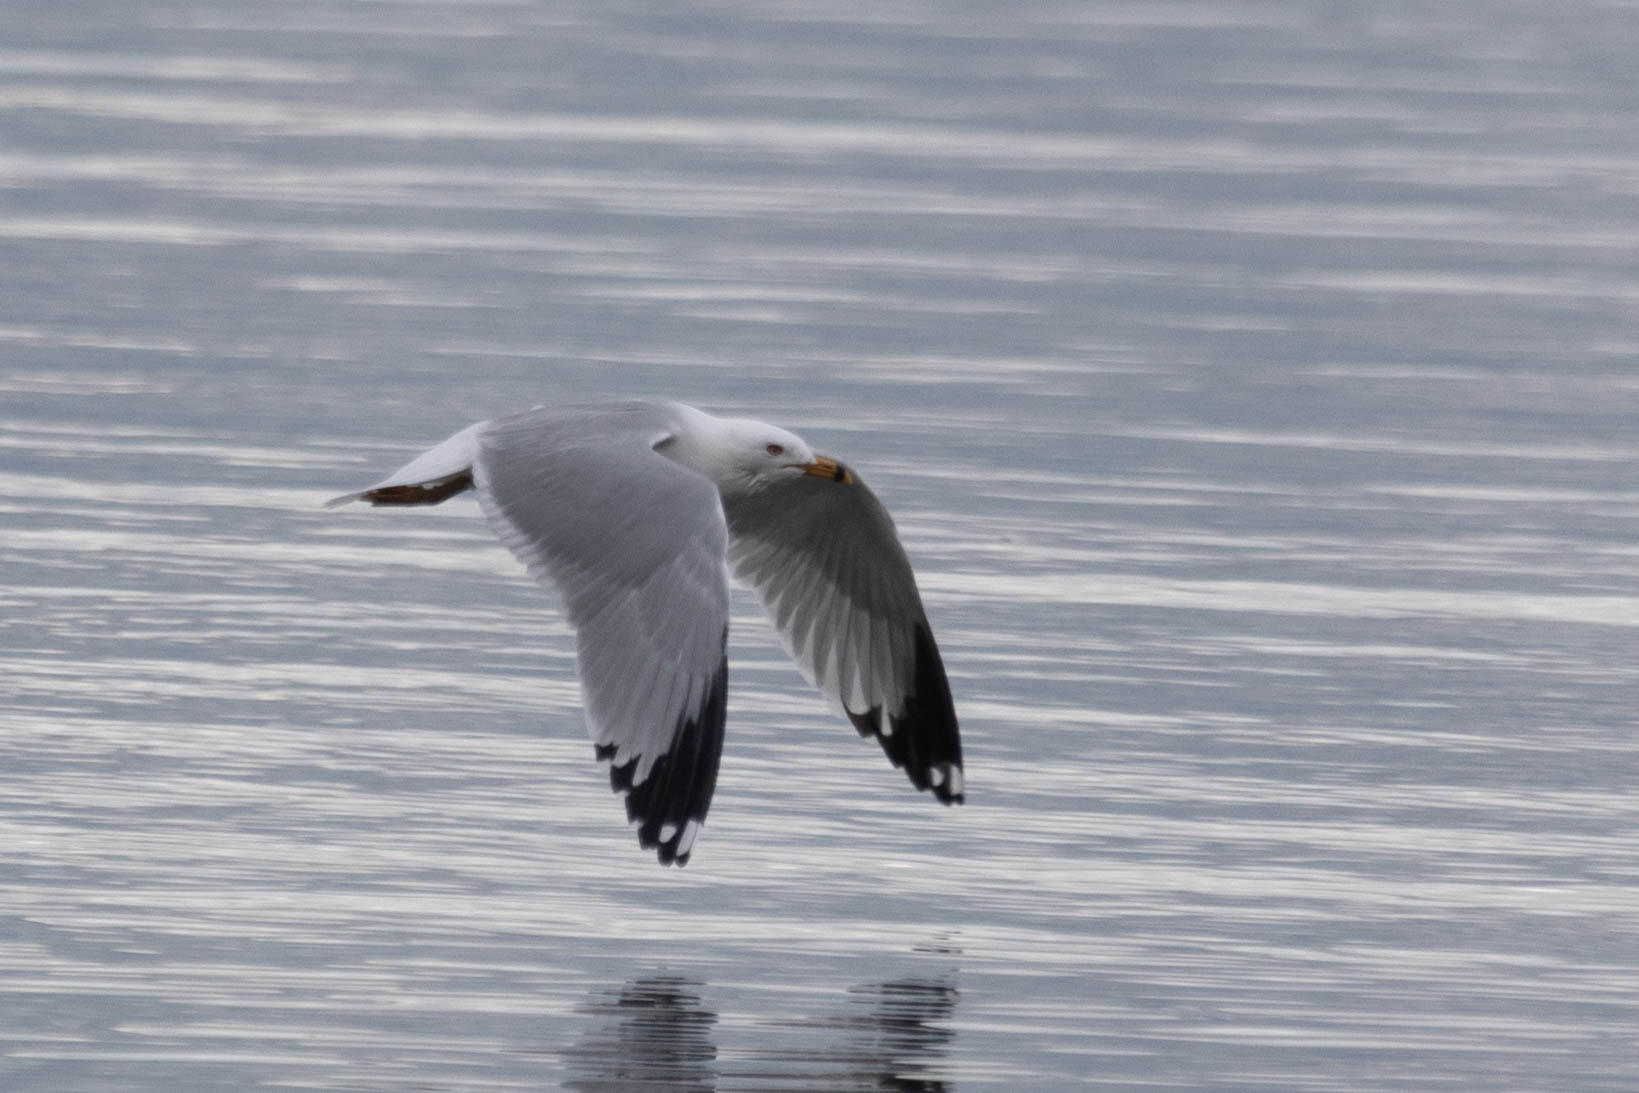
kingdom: Animalia
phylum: Chordata
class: Aves
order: Charadriiformes
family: Laridae
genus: Larus
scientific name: Larus delawarensis
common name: Ring-billed gull
